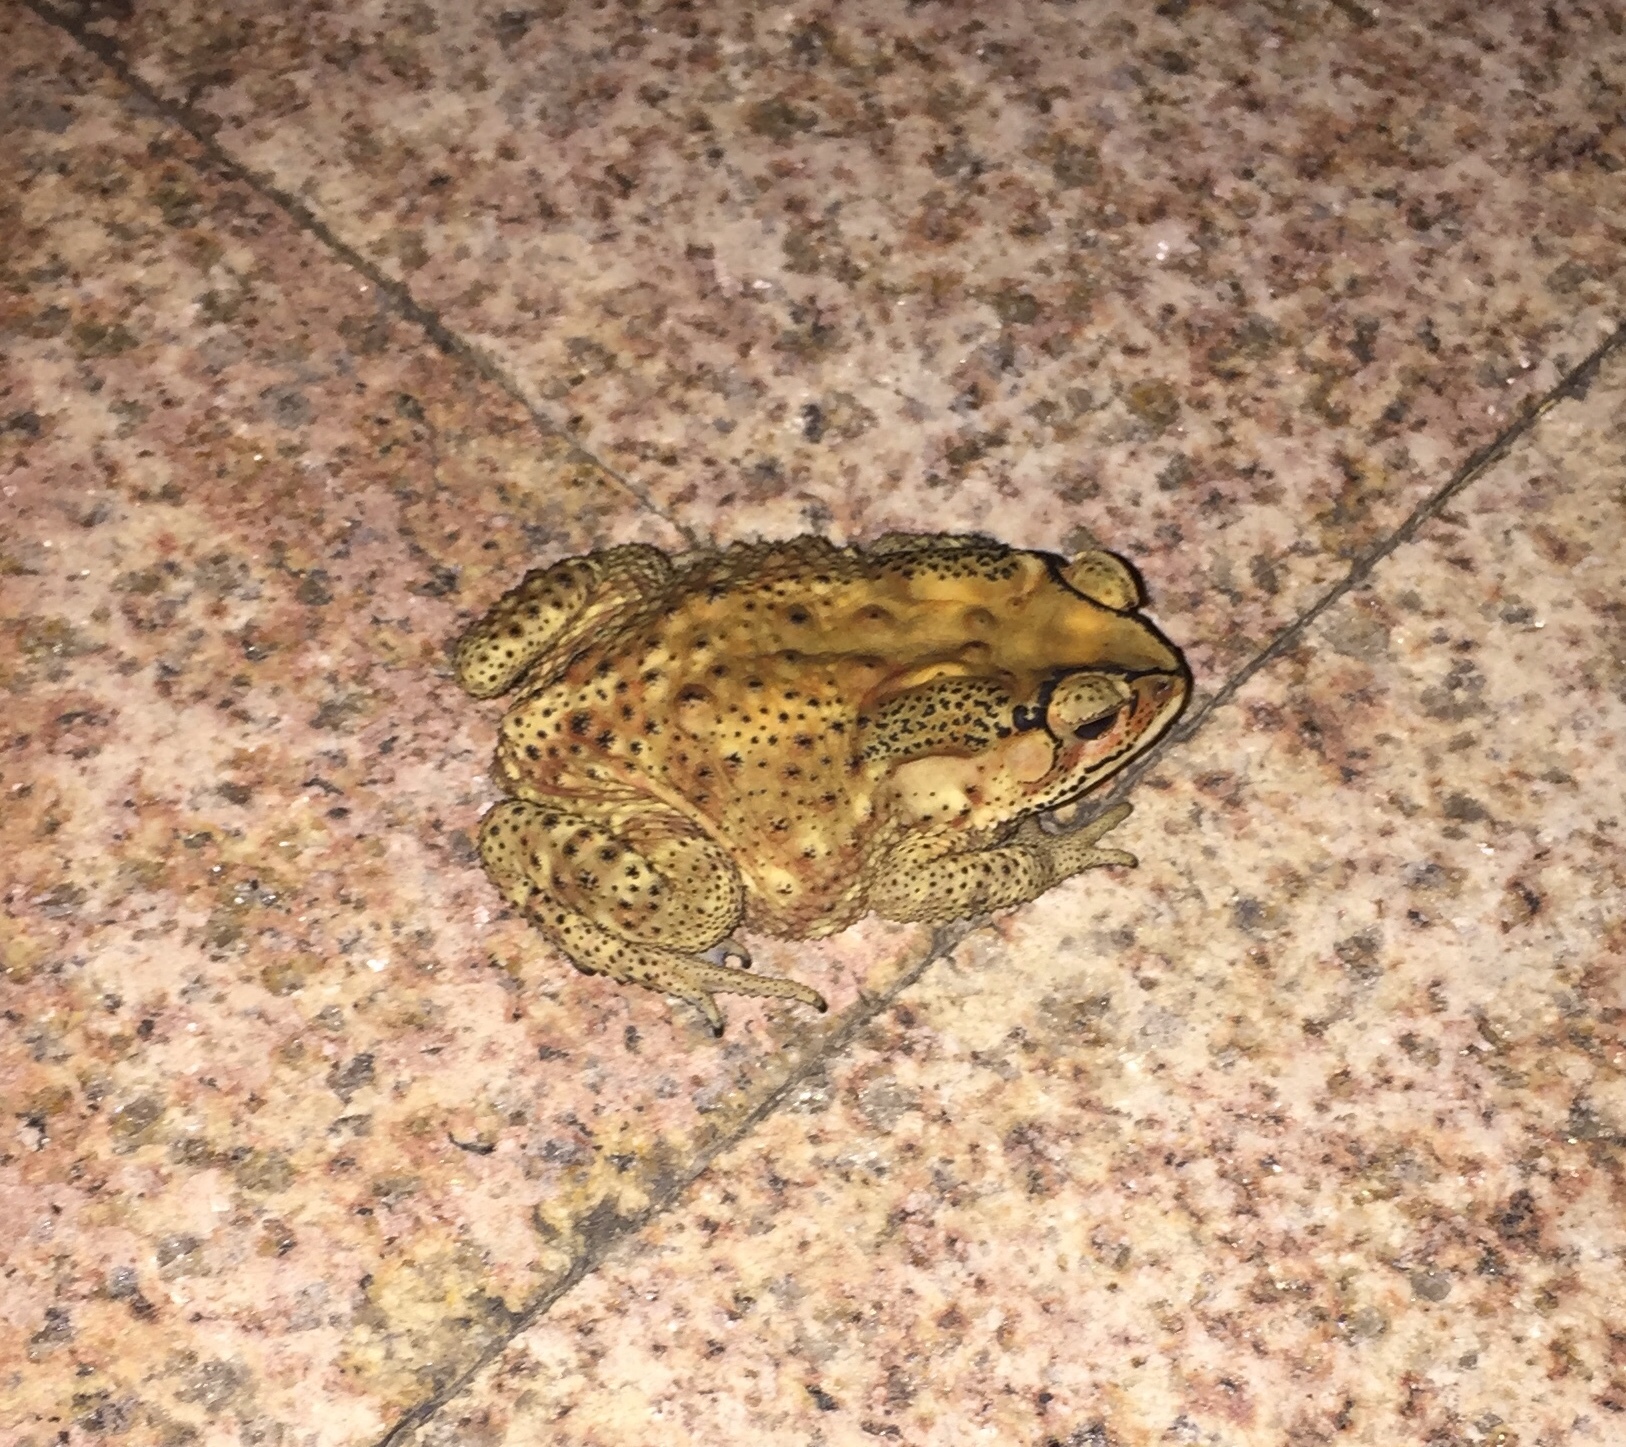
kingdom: Animalia
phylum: Chordata
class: Amphibia
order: Anura
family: Bufonidae
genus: Duttaphrynus
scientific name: Duttaphrynus melanostictus
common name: Common sunda toad
